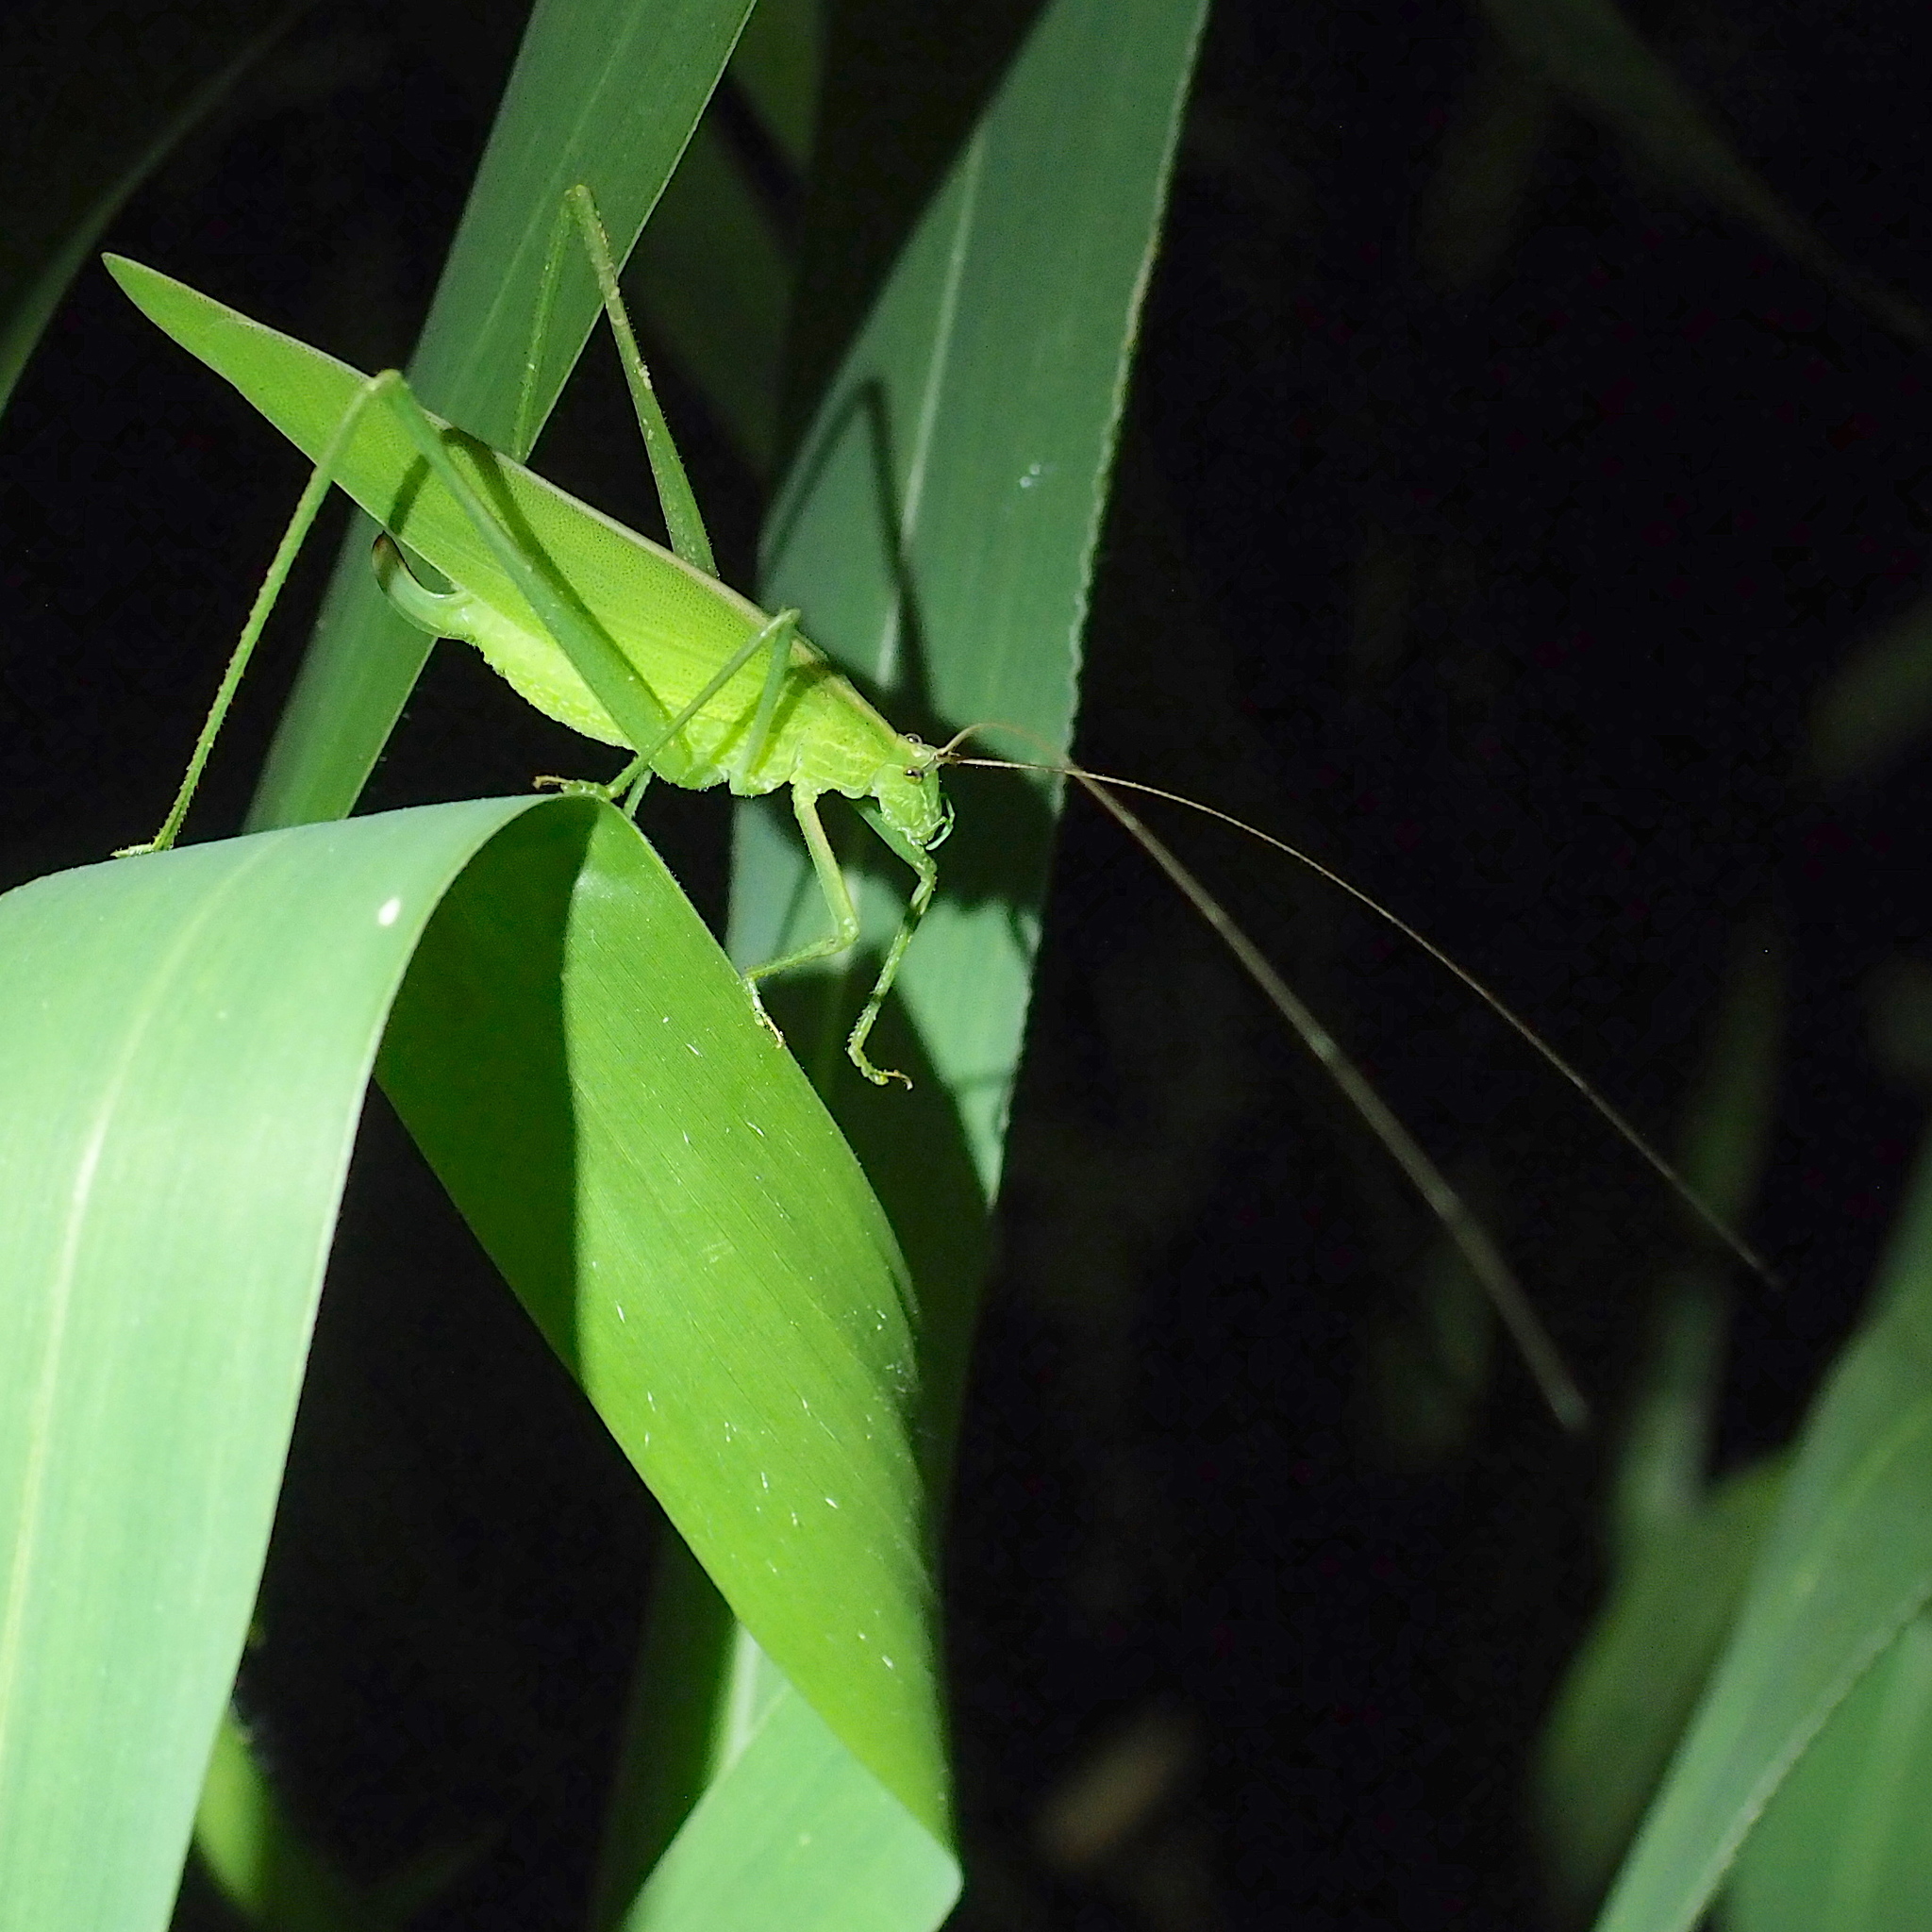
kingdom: Animalia
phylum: Arthropoda
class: Insecta
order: Orthoptera
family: Tettigoniidae
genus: Ducetia
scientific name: Ducetia japonica
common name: Pacific ducetia
